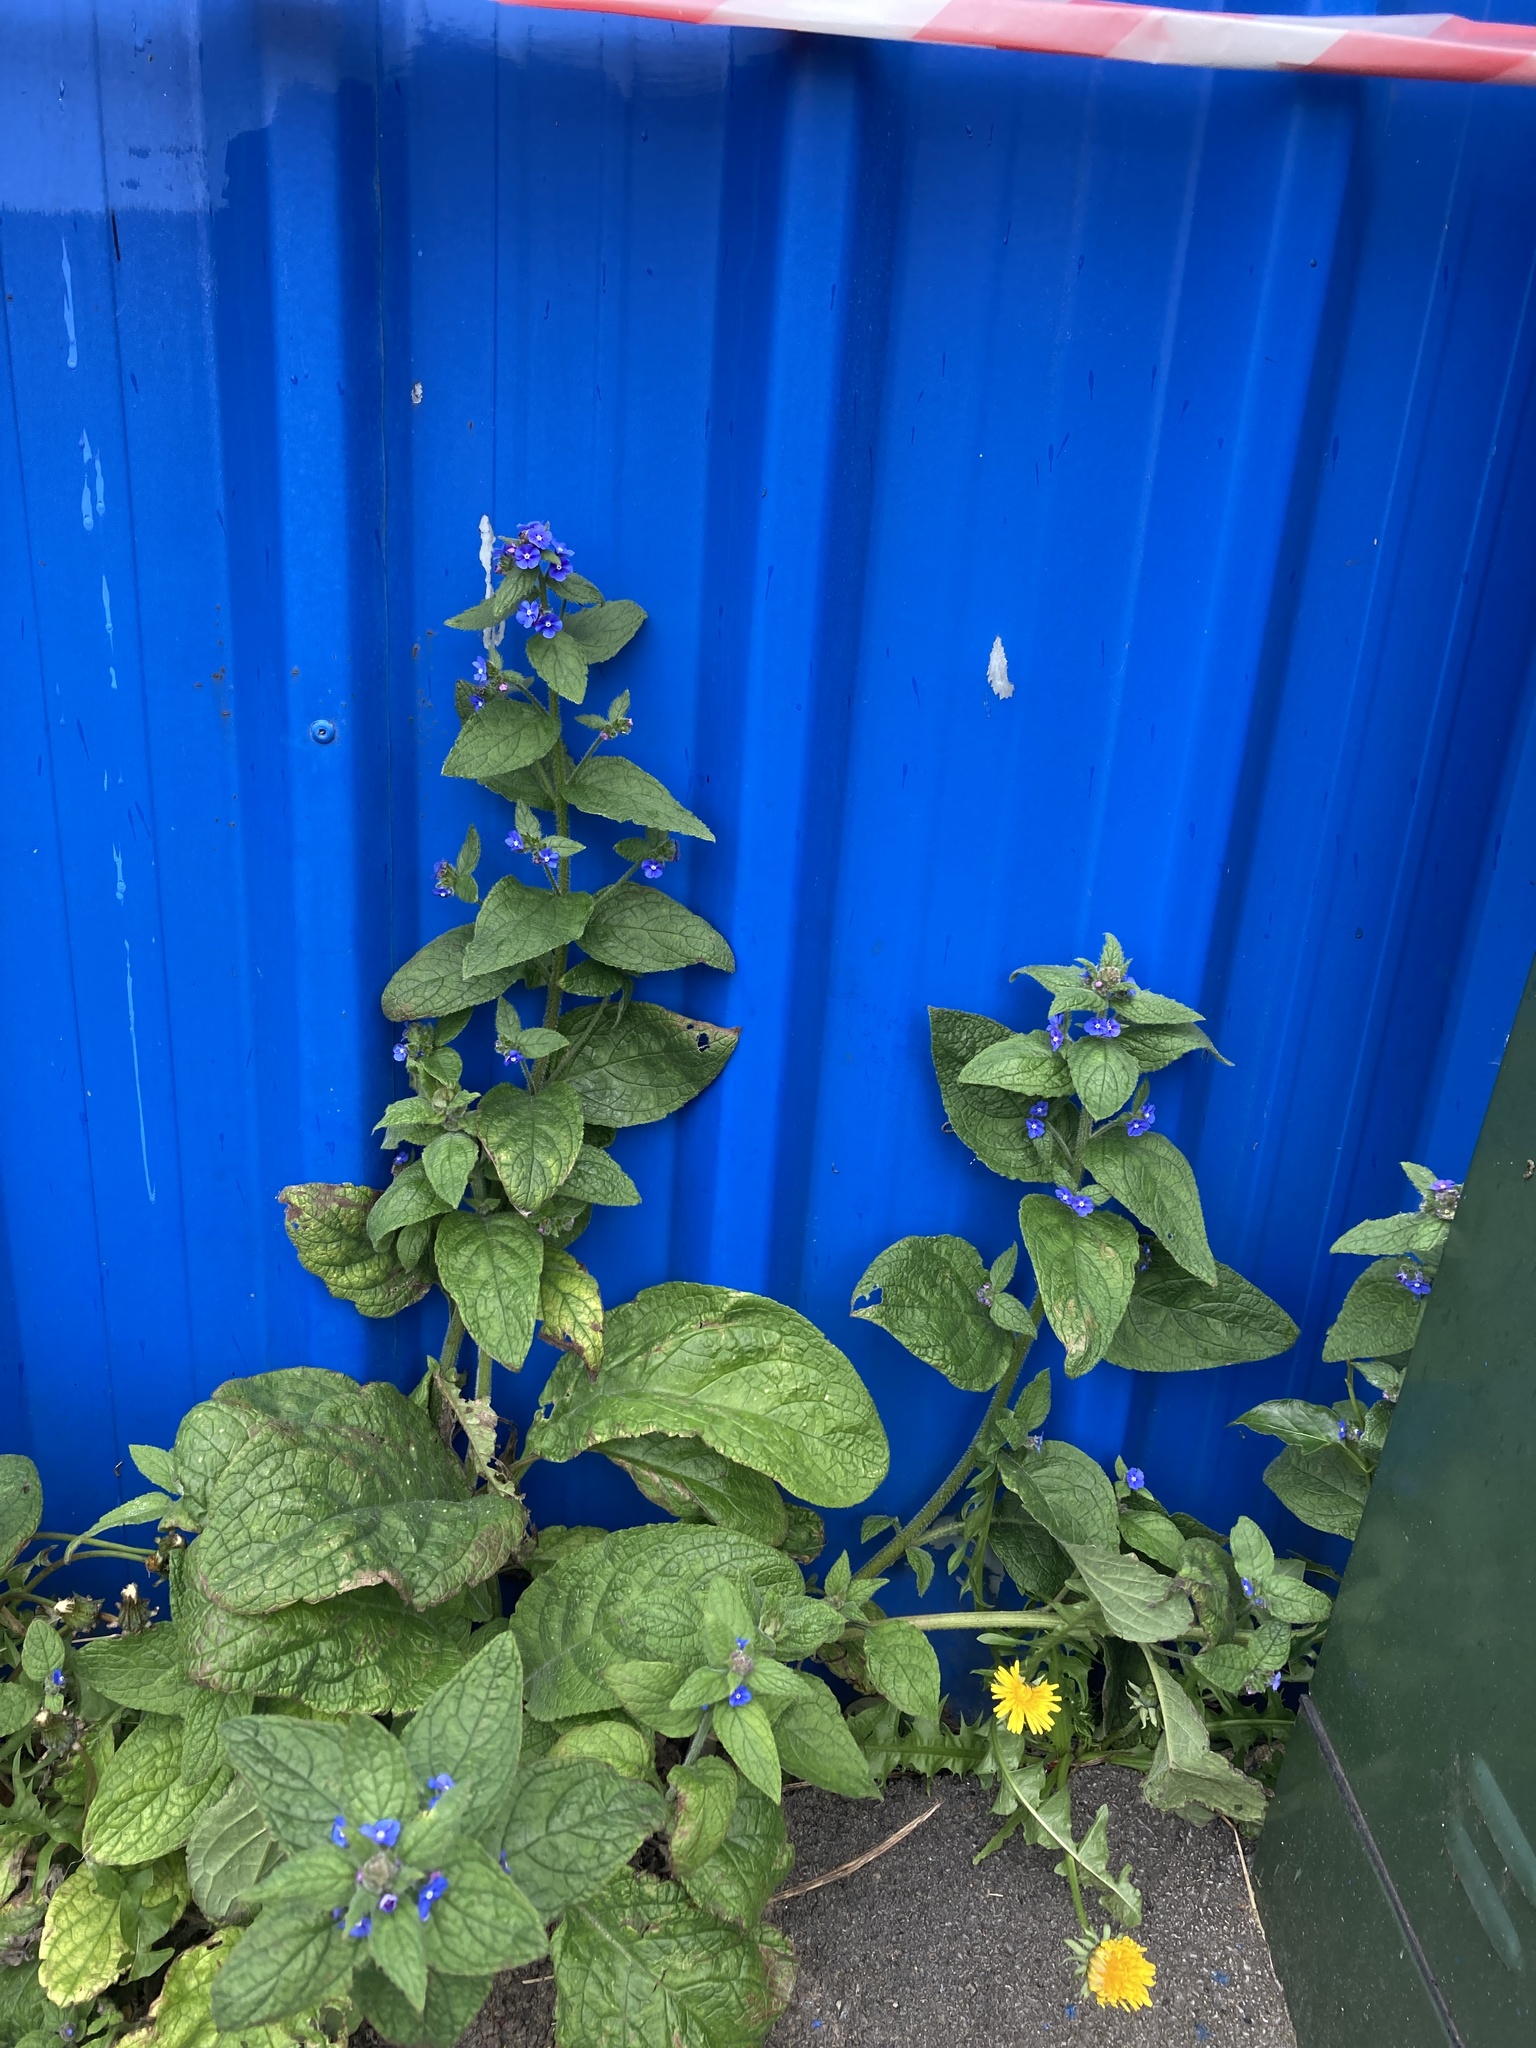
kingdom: Plantae
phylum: Tracheophyta
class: Magnoliopsida
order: Boraginales
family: Boraginaceae
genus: Pentaglottis
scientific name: Pentaglottis sempervirens
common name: Green alkanet
